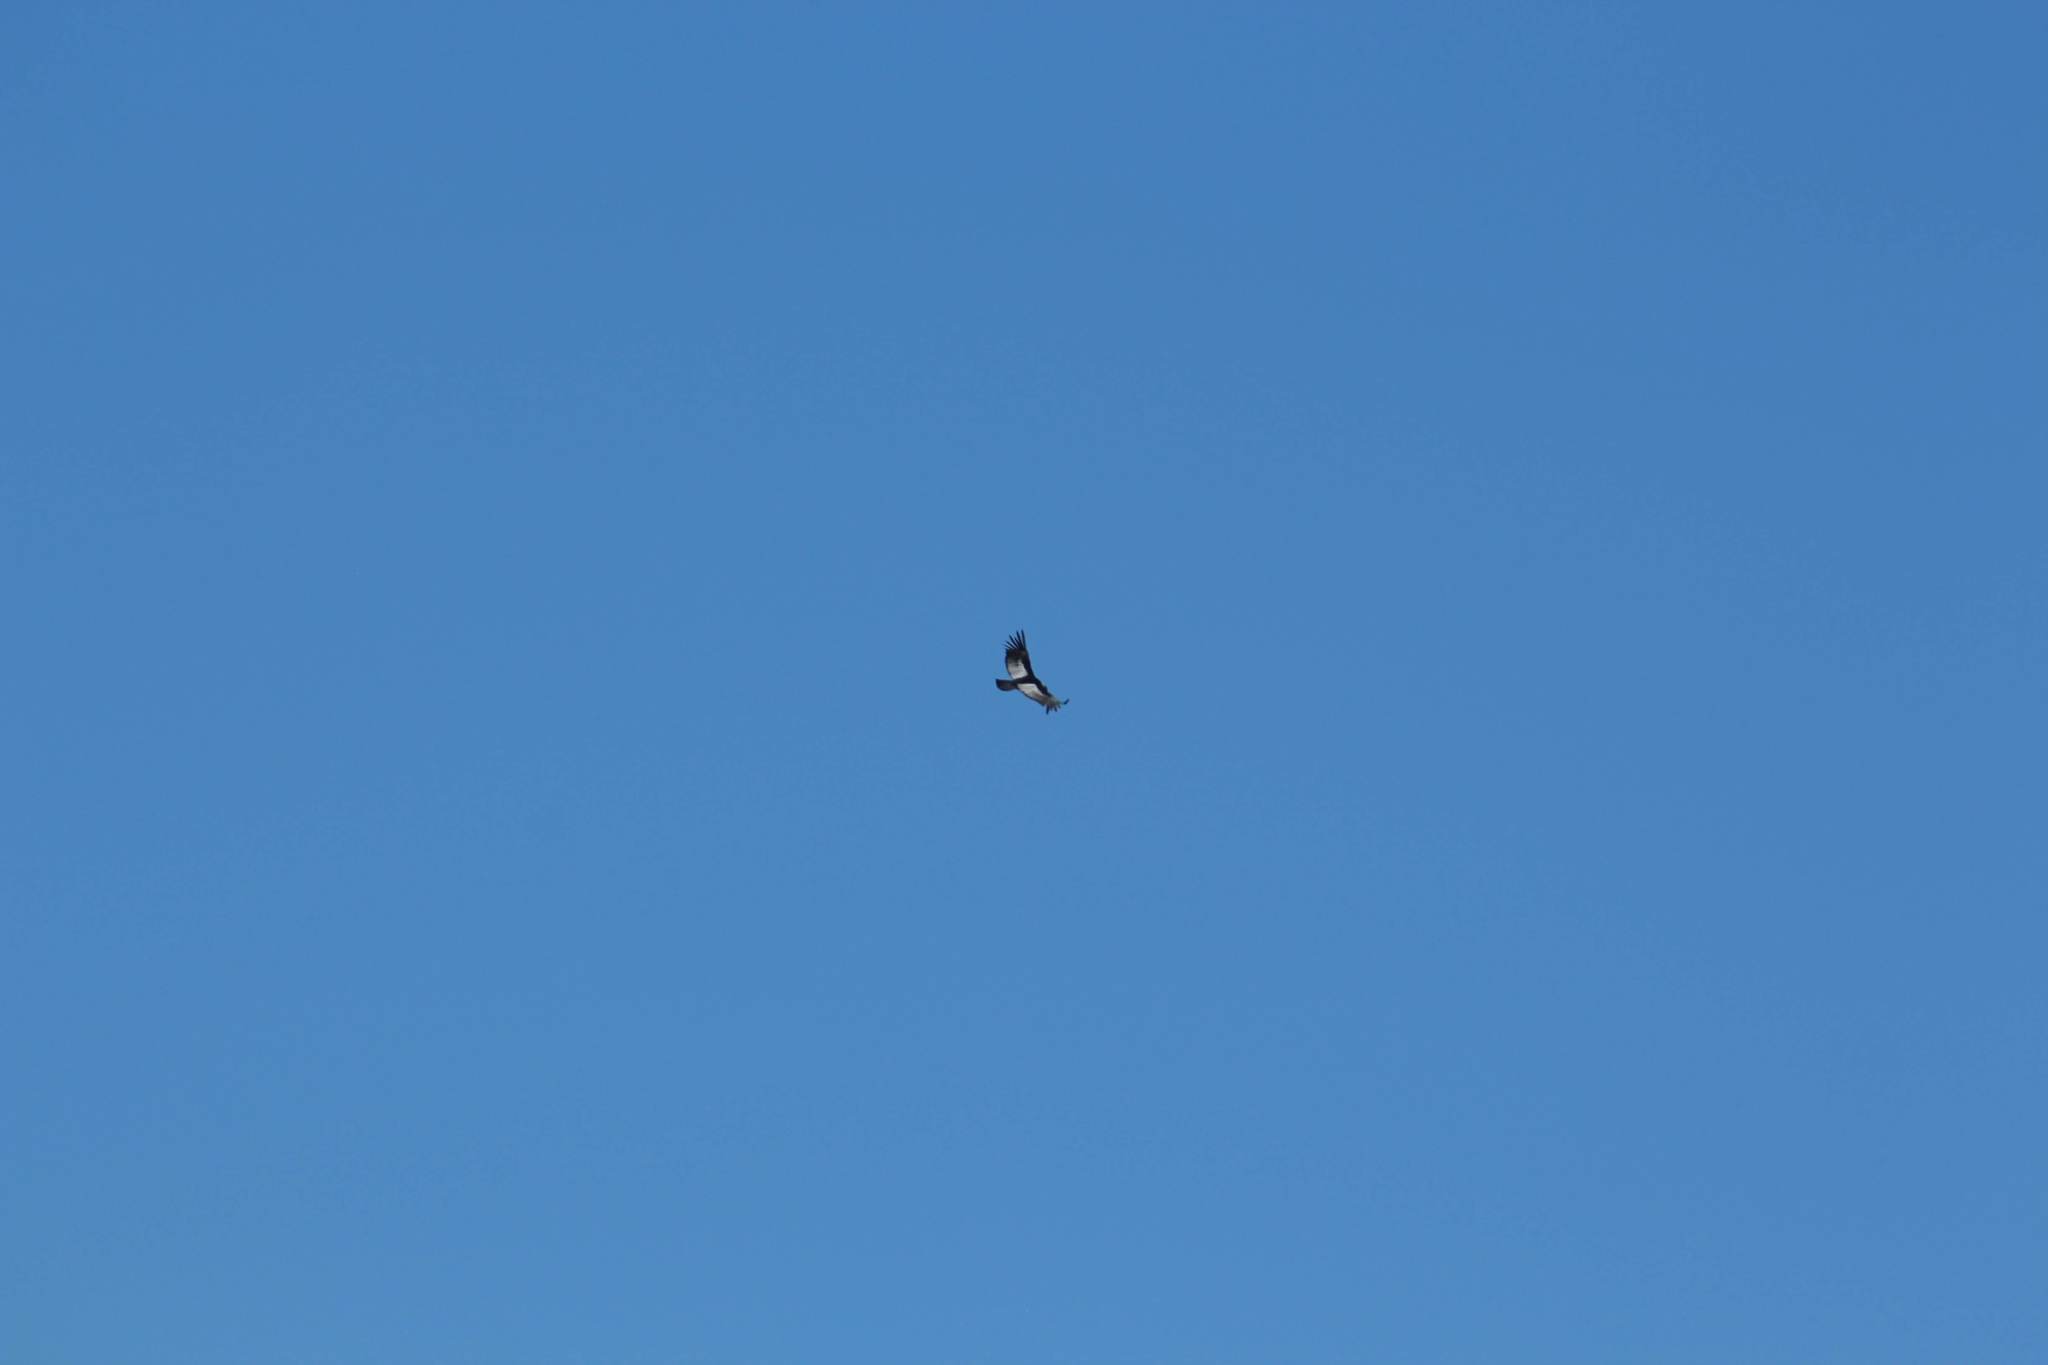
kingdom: Animalia
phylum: Chordata
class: Aves
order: Accipitriformes
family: Cathartidae
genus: Vultur
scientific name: Vultur gryphus
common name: Andean condor
